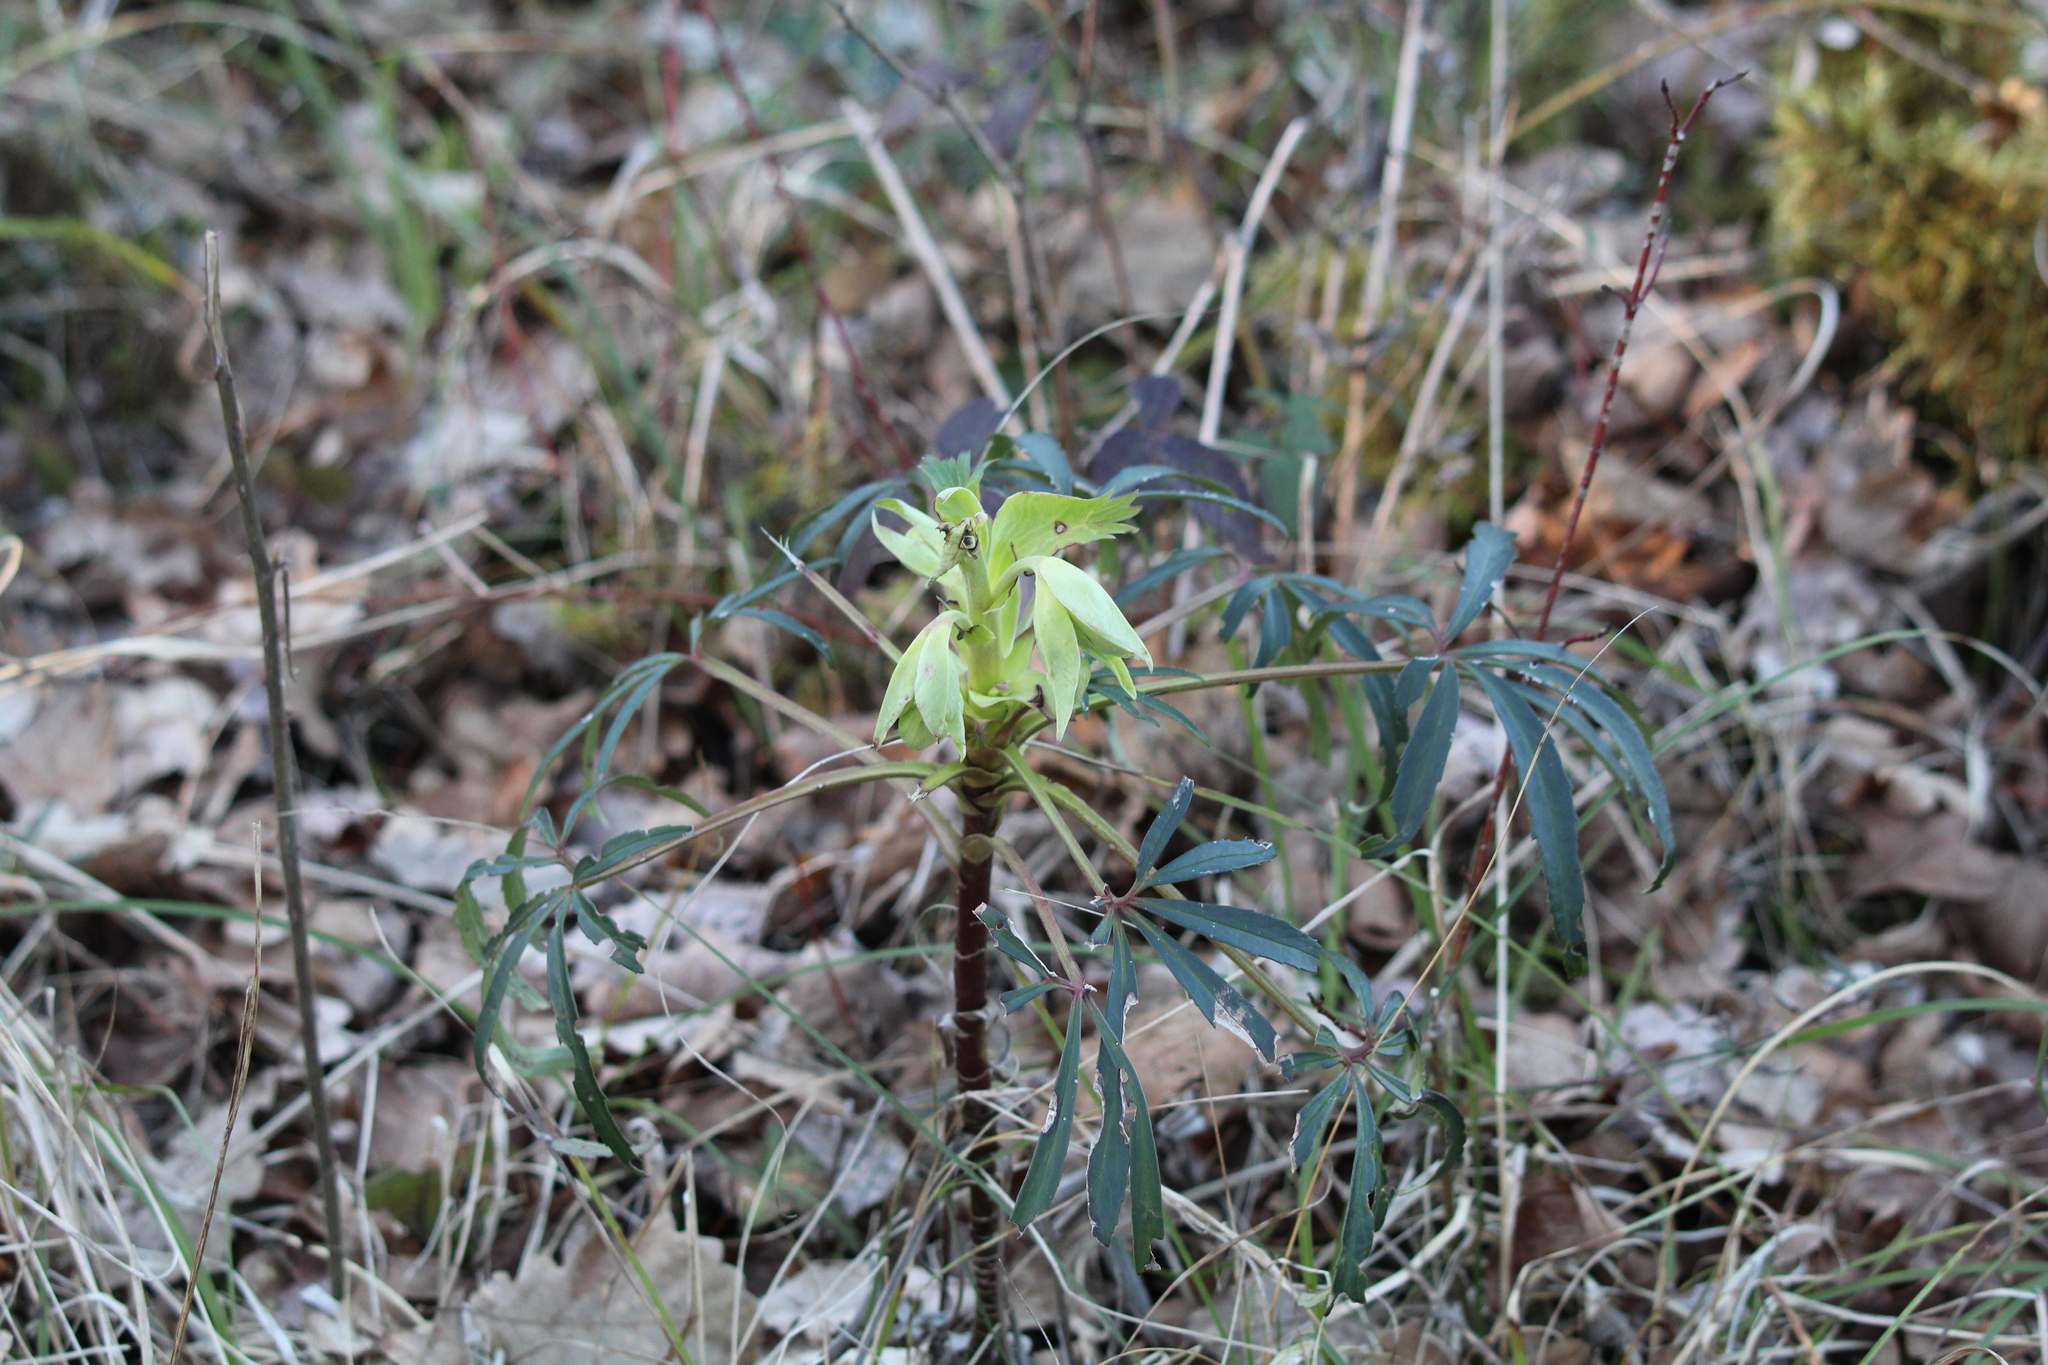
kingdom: Plantae
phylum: Tracheophyta
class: Magnoliopsida
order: Ranunculales
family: Ranunculaceae
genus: Helleborus
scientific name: Helleborus foetidus
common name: Stinking hellebore
